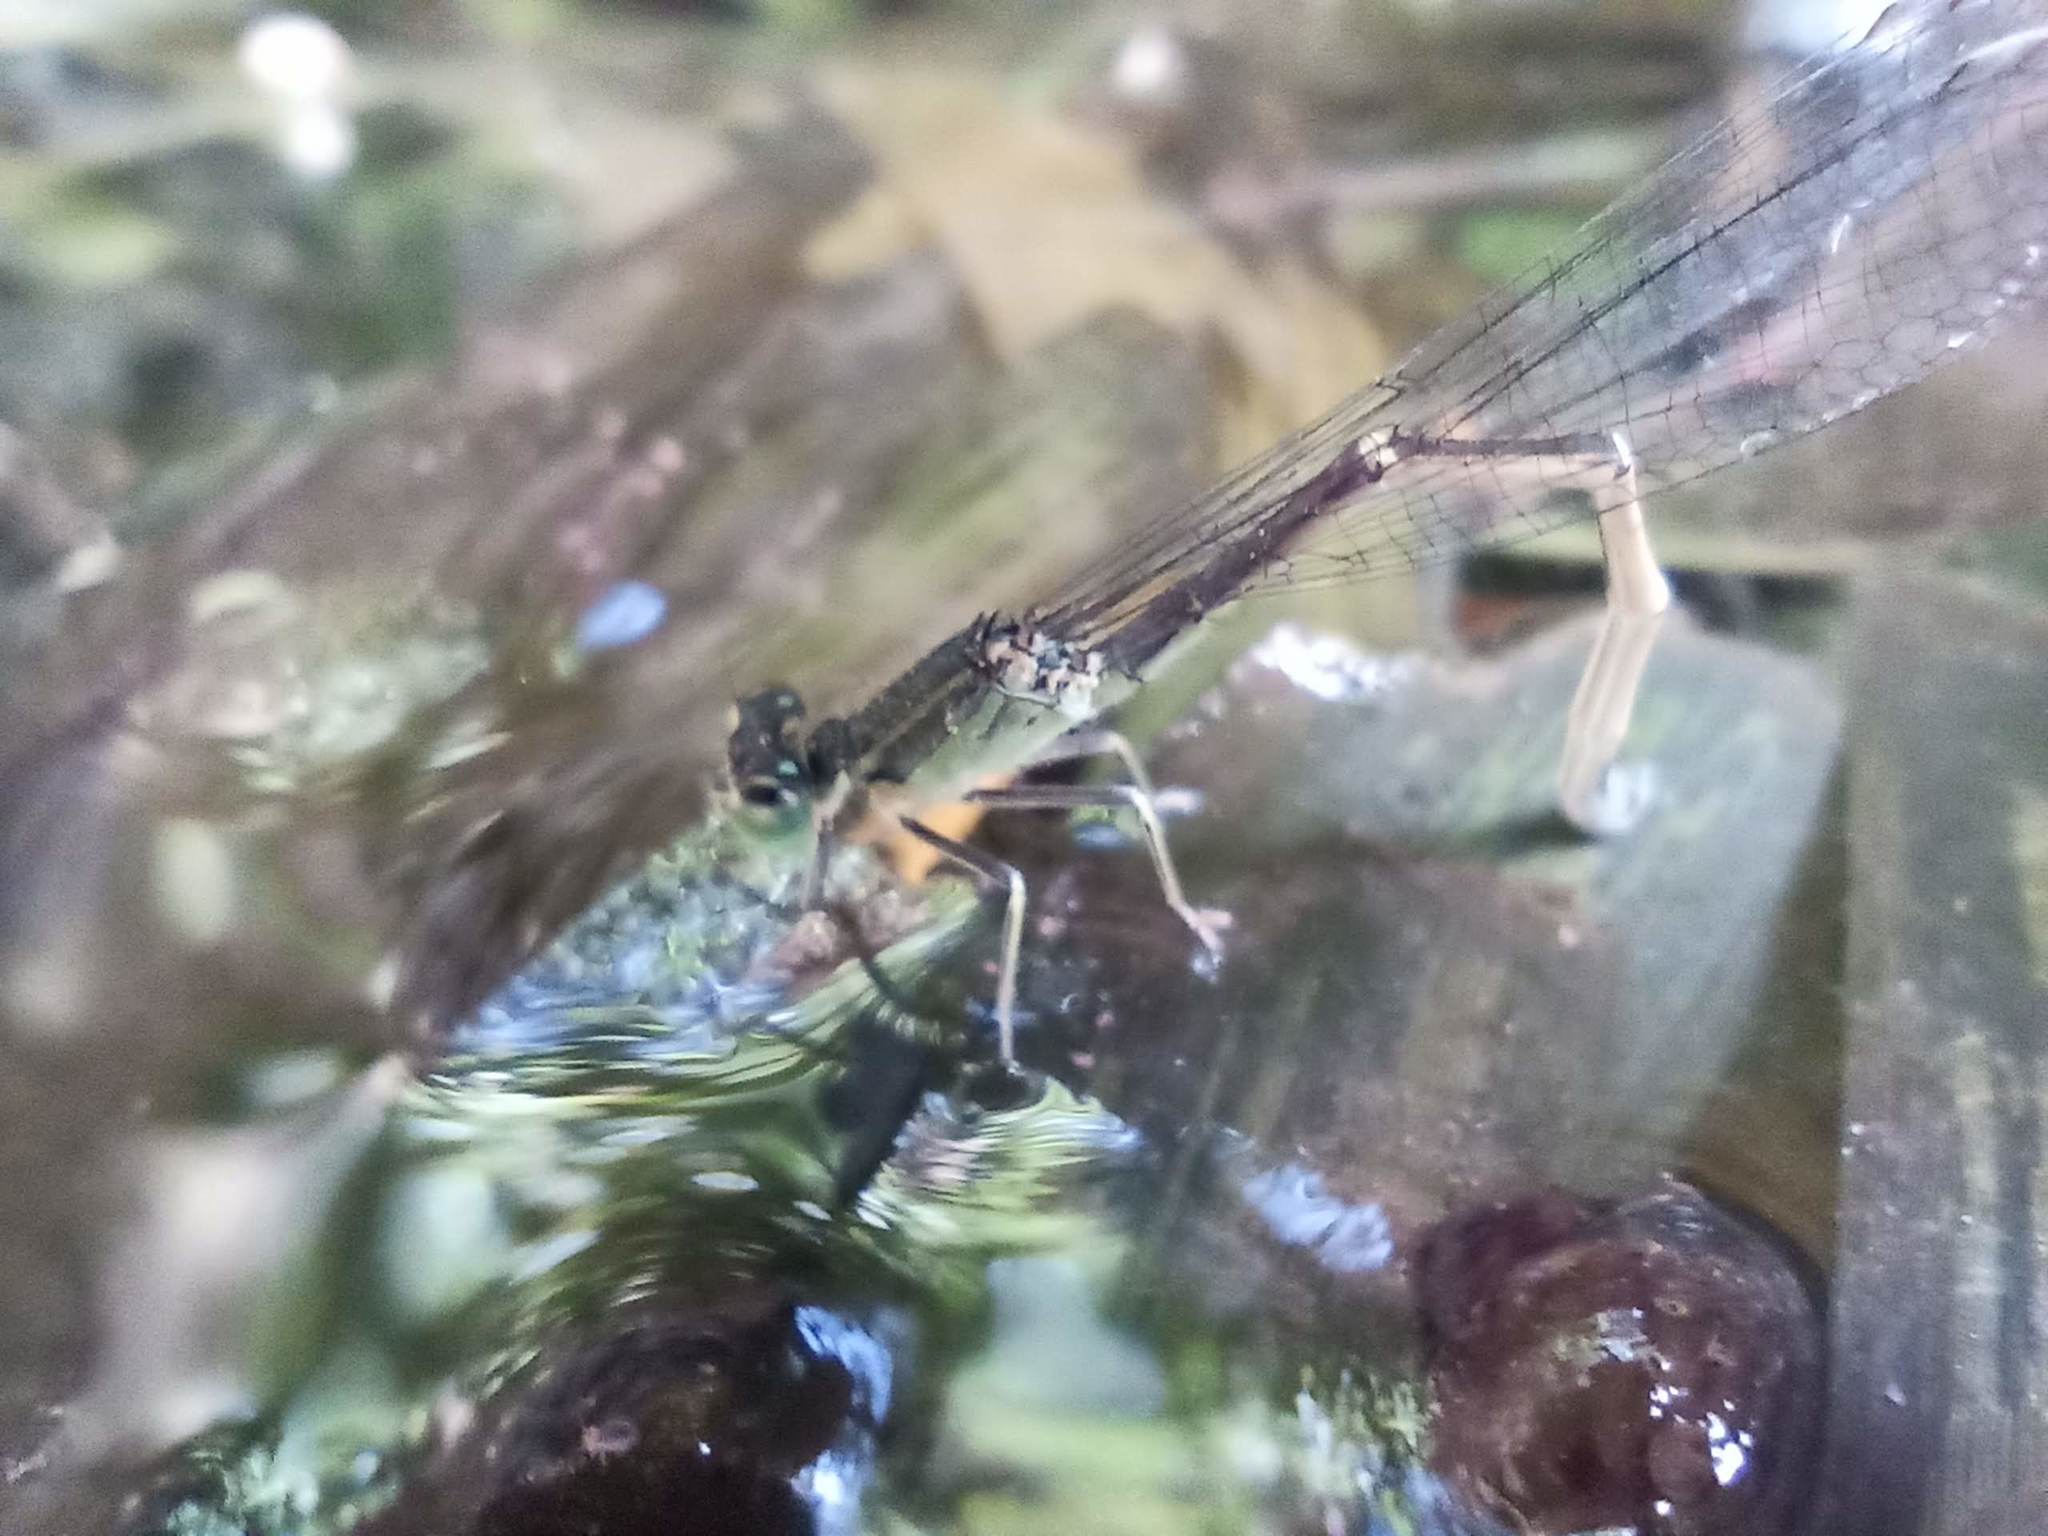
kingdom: Animalia
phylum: Arthropoda
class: Insecta
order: Odonata
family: Coenagrionidae
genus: Ischnura
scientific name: Ischnura saharensis
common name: Sahara bluetail
